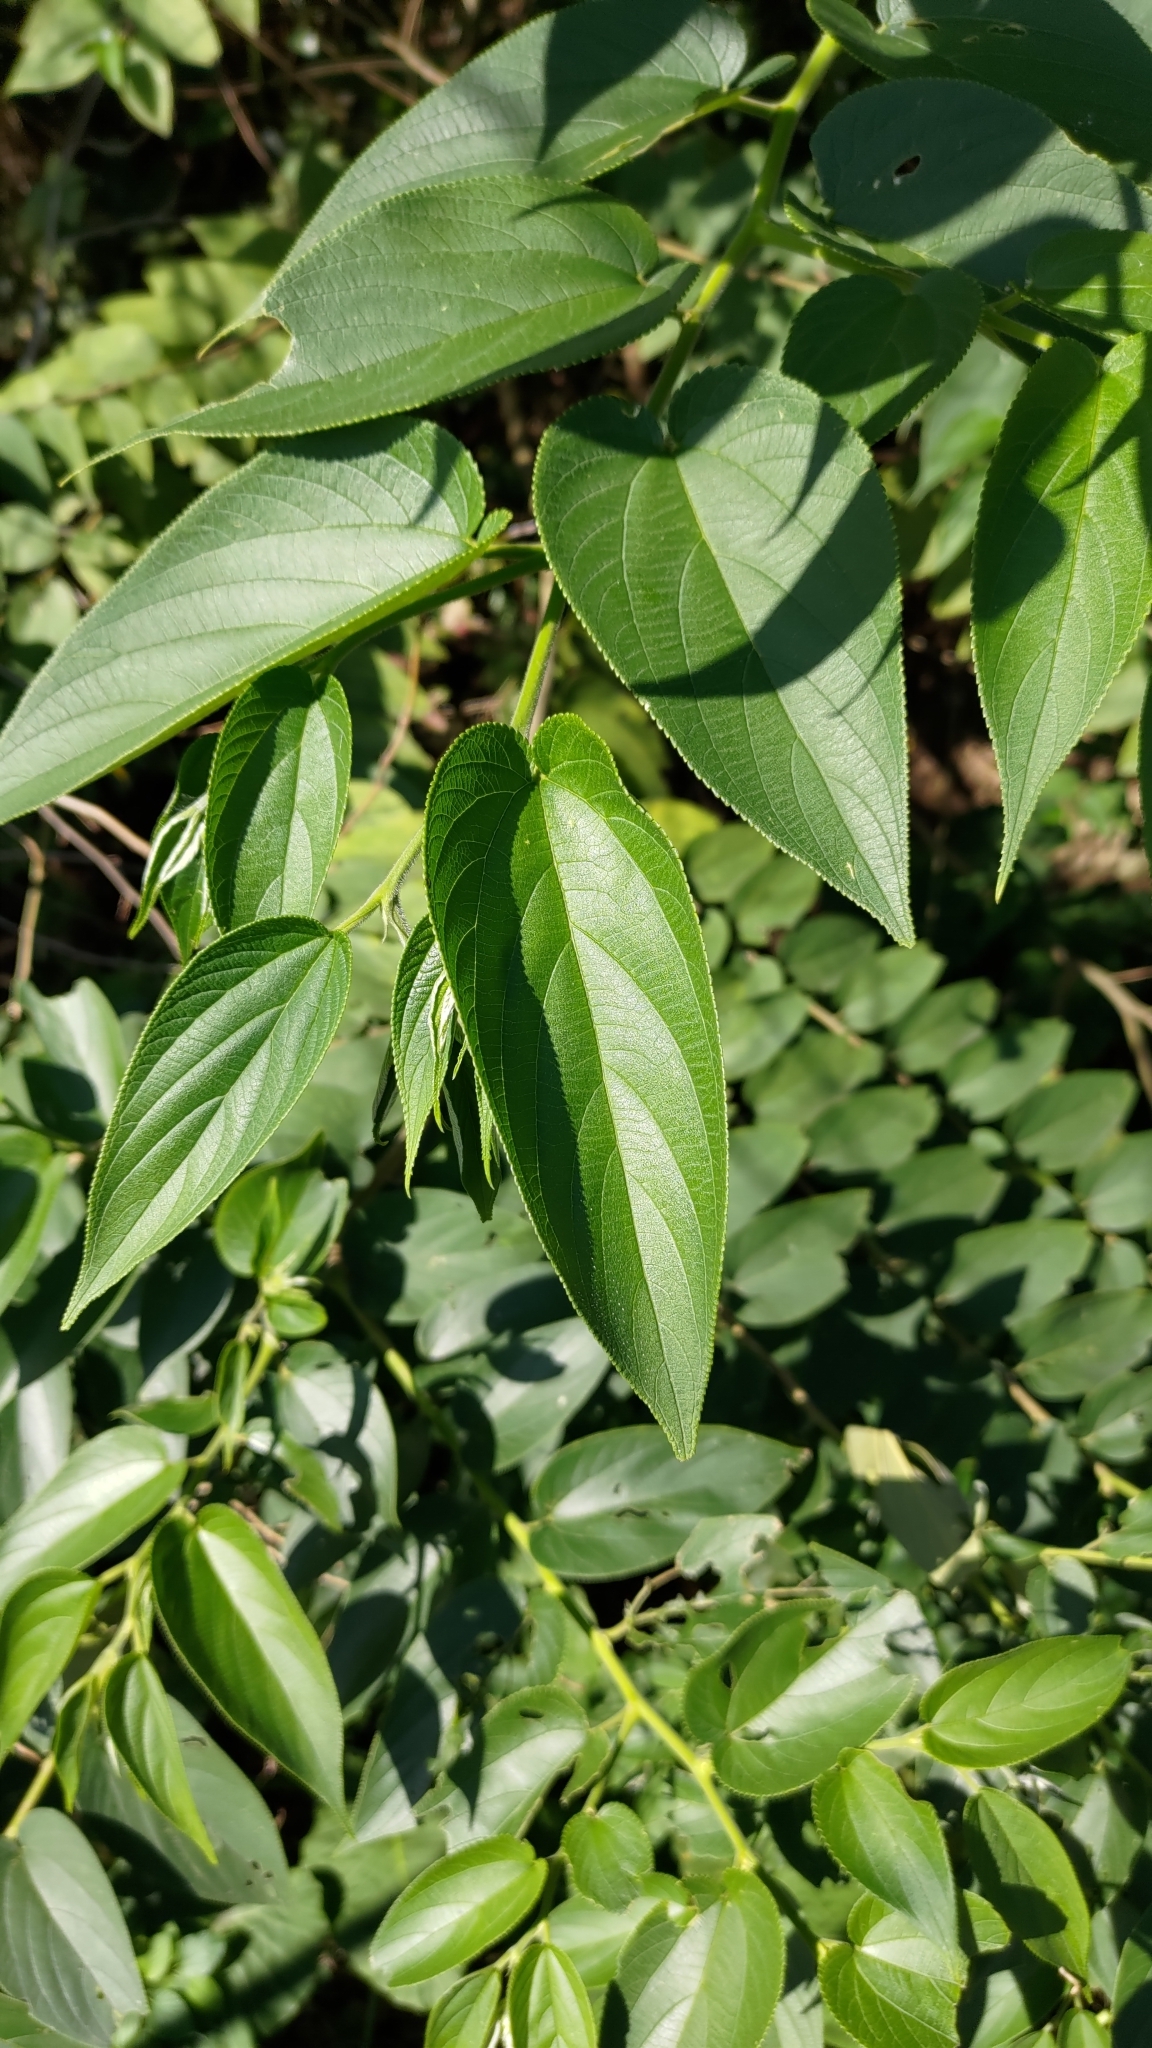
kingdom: Plantae
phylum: Tracheophyta
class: Magnoliopsida
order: Rosales
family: Cannabaceae
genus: Trema
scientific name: Trema orientale
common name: Indian charcoal tree
